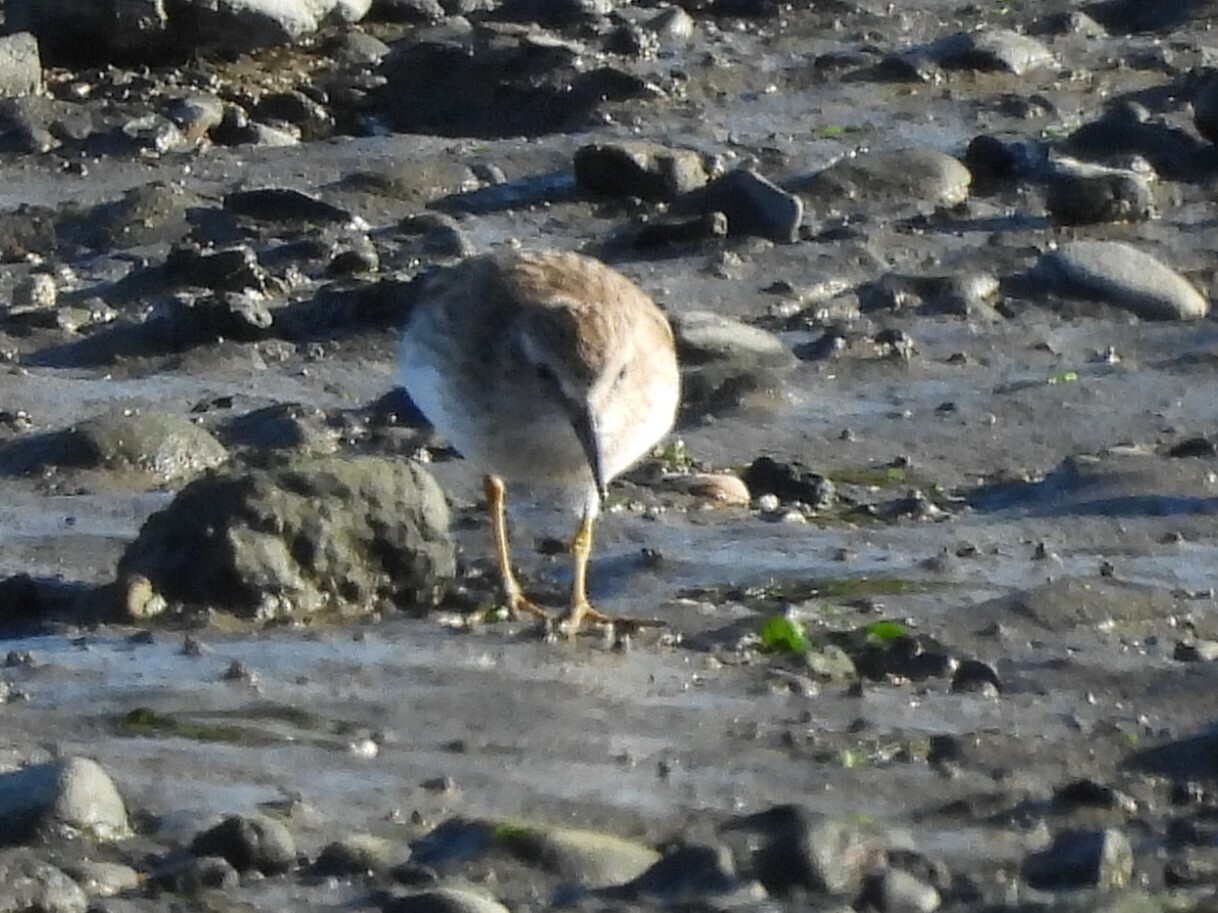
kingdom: Animalia
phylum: Chordata
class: Aves
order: Charadriiformes
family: Scolopacidae
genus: Calidris
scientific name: Calidris minutilla
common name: Least sandpiper
